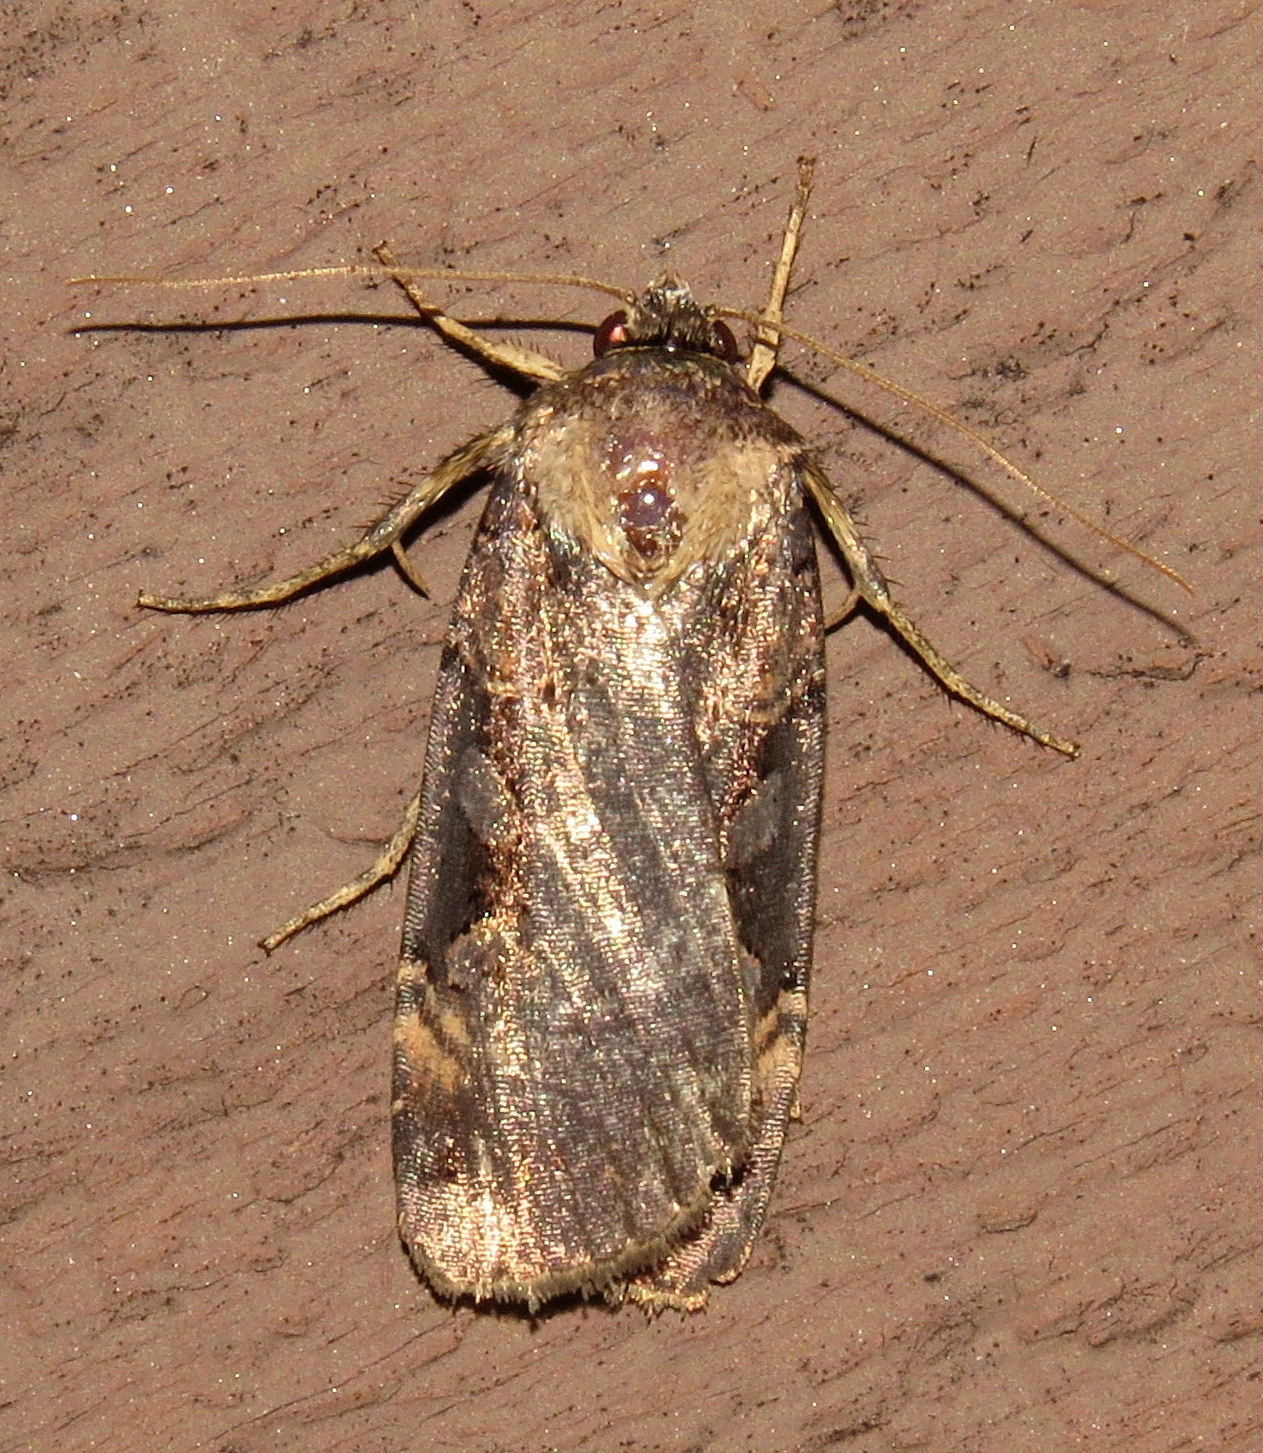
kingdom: Animalia
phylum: Arthropoda
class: Insecta
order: Lepidoptera
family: Noctuidae
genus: Pseudohermonassa
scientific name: Pseudohermonassa bicarnea
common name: Pink spotted dart
